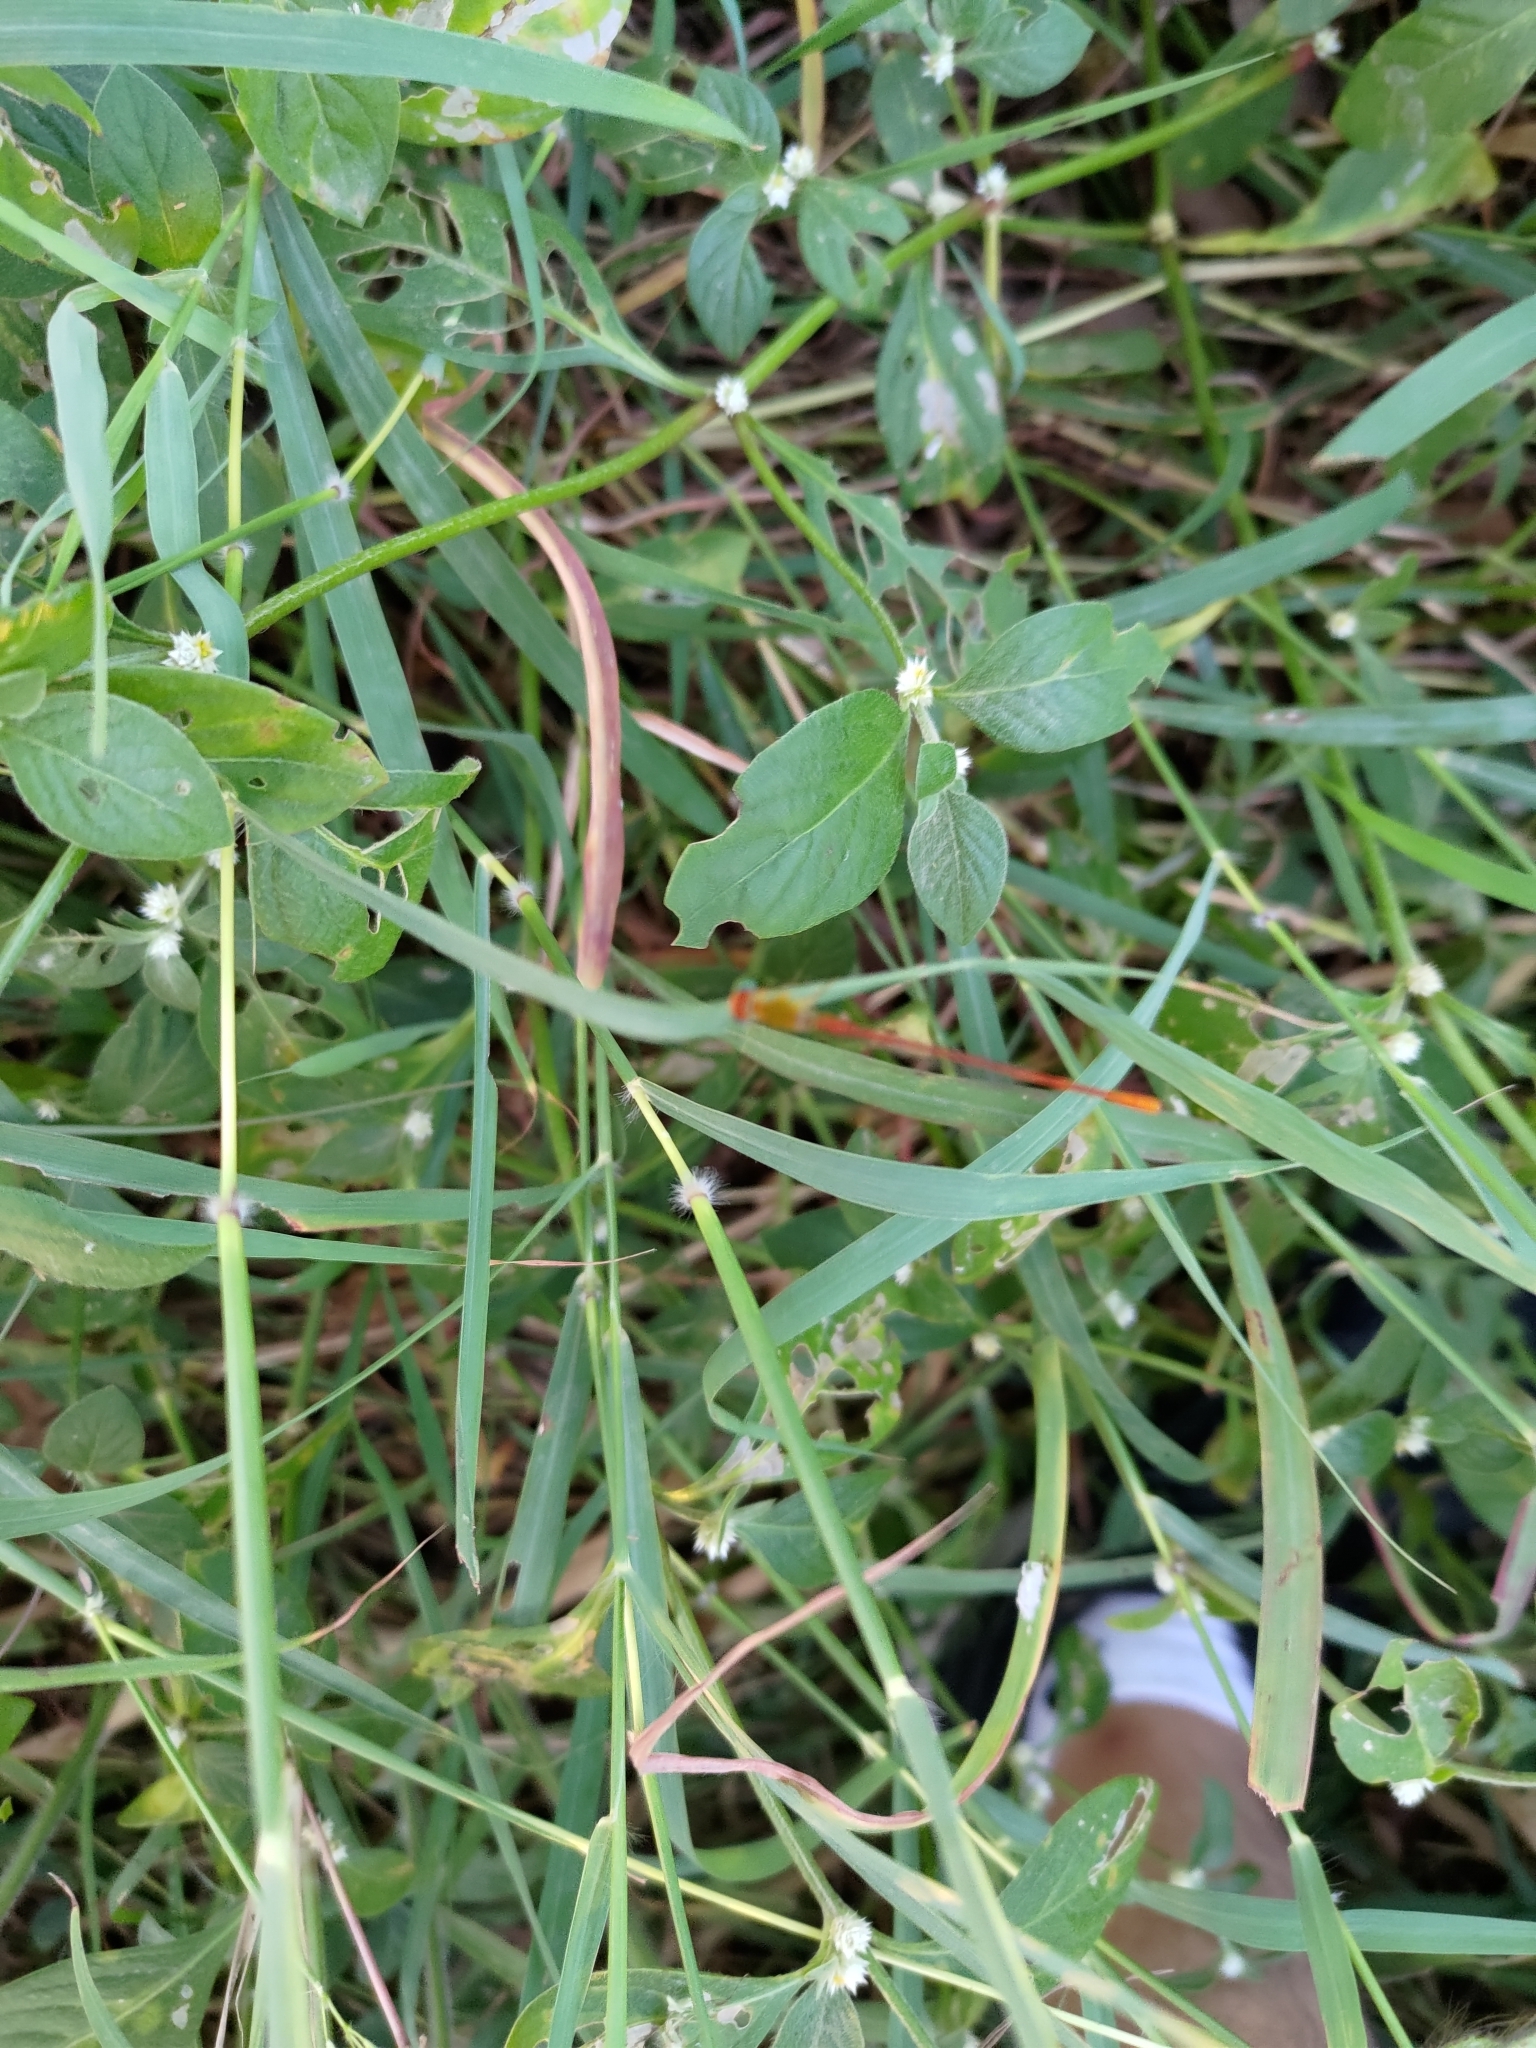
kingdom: Animalia
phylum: Arthropoda
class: Insecta
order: Odonata
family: Coenagrionidae
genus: Ceriagrion
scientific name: Ceriagrion auranticum
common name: Orange-tailed sprite
